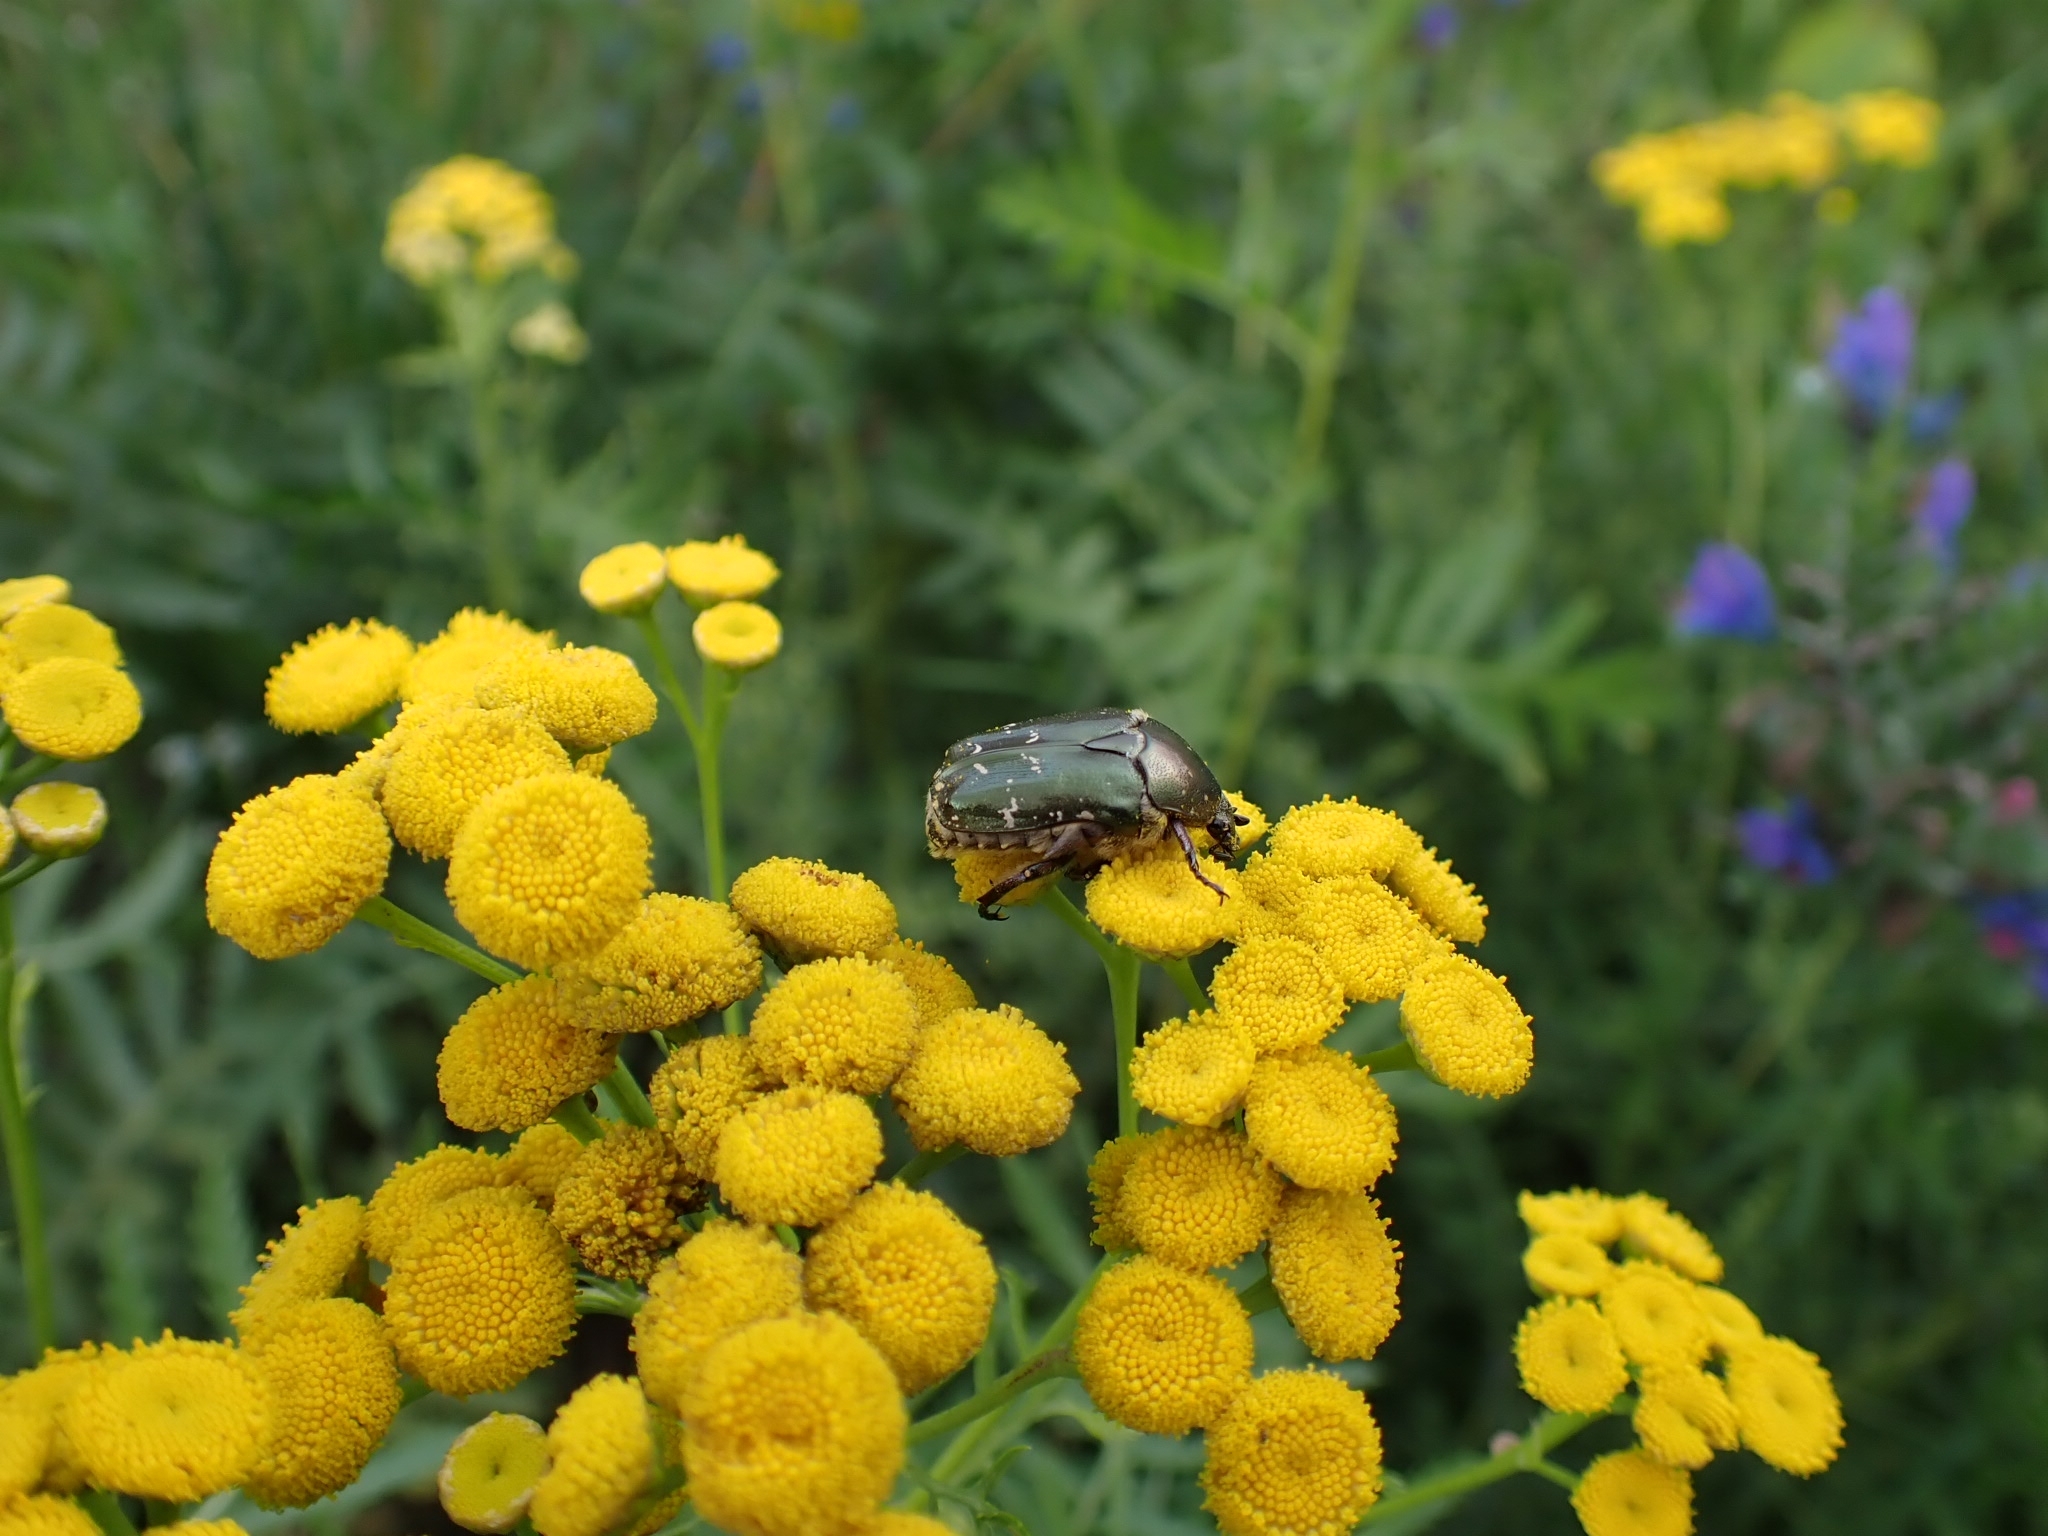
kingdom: Animalia
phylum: Arthropoda
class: Insecta
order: Coleoptera
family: Scarabaeidae
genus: Protaetia
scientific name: Protaetia cuprea
